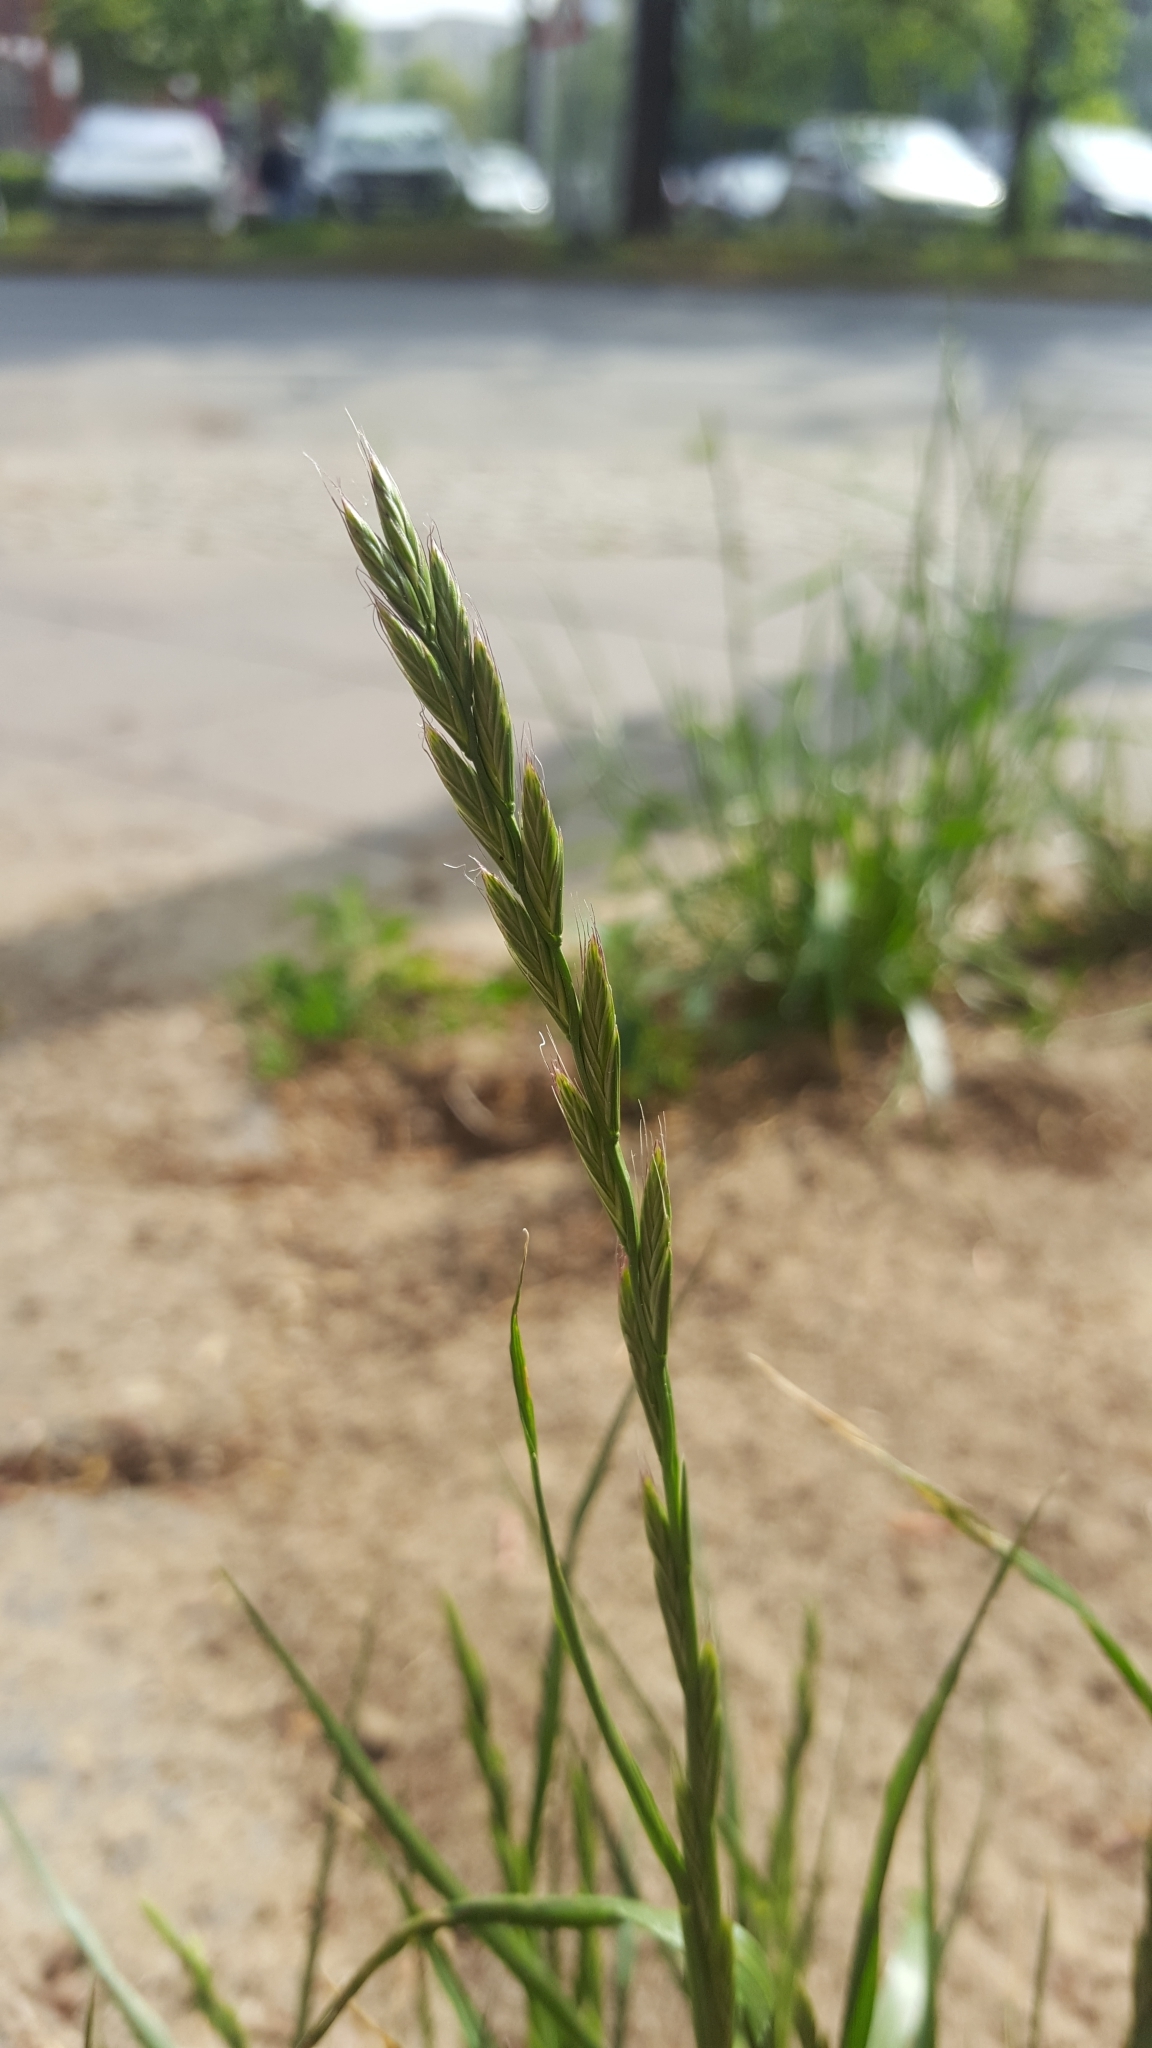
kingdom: Plantae
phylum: Tracheophyta
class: Liliopsida
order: Poales
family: Poaceae
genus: Lolium
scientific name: Lolium multiflorum
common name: Annual ryegrass
